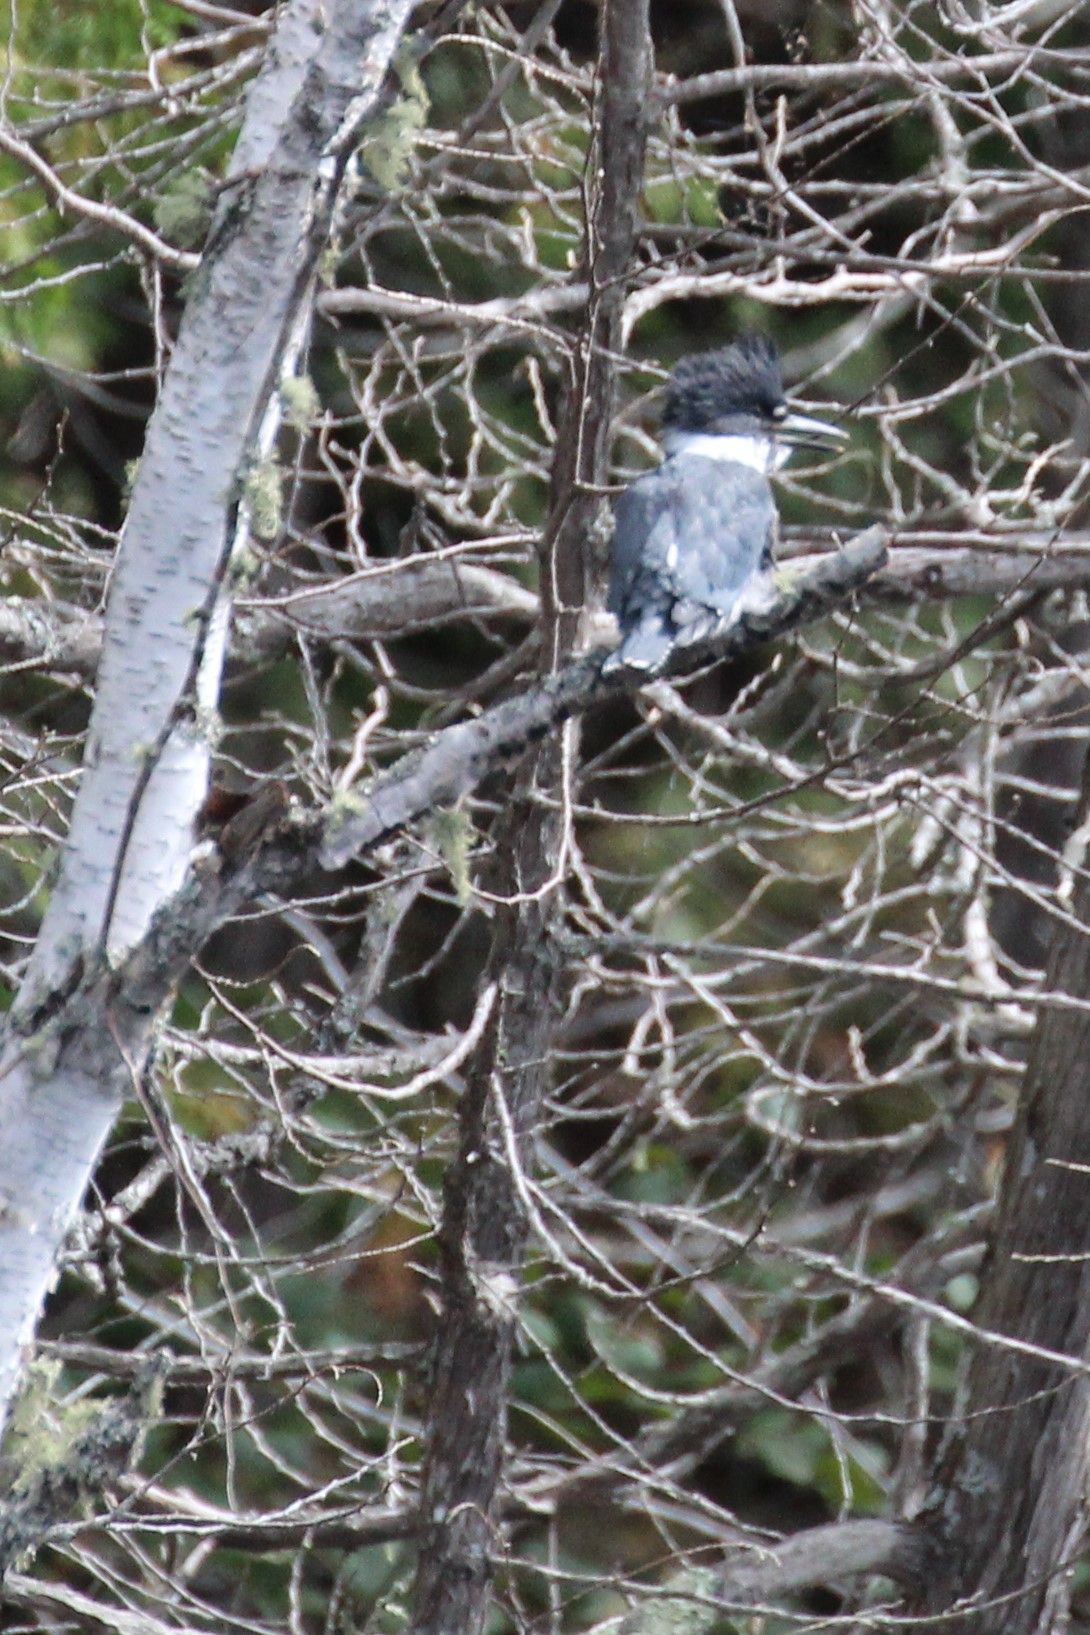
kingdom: Animalia
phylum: Chordata
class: Aves
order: Coraciiformes
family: Alcedinidae
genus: Megaceryle
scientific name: Megaceryle alcyon
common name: Belted kingfisher
